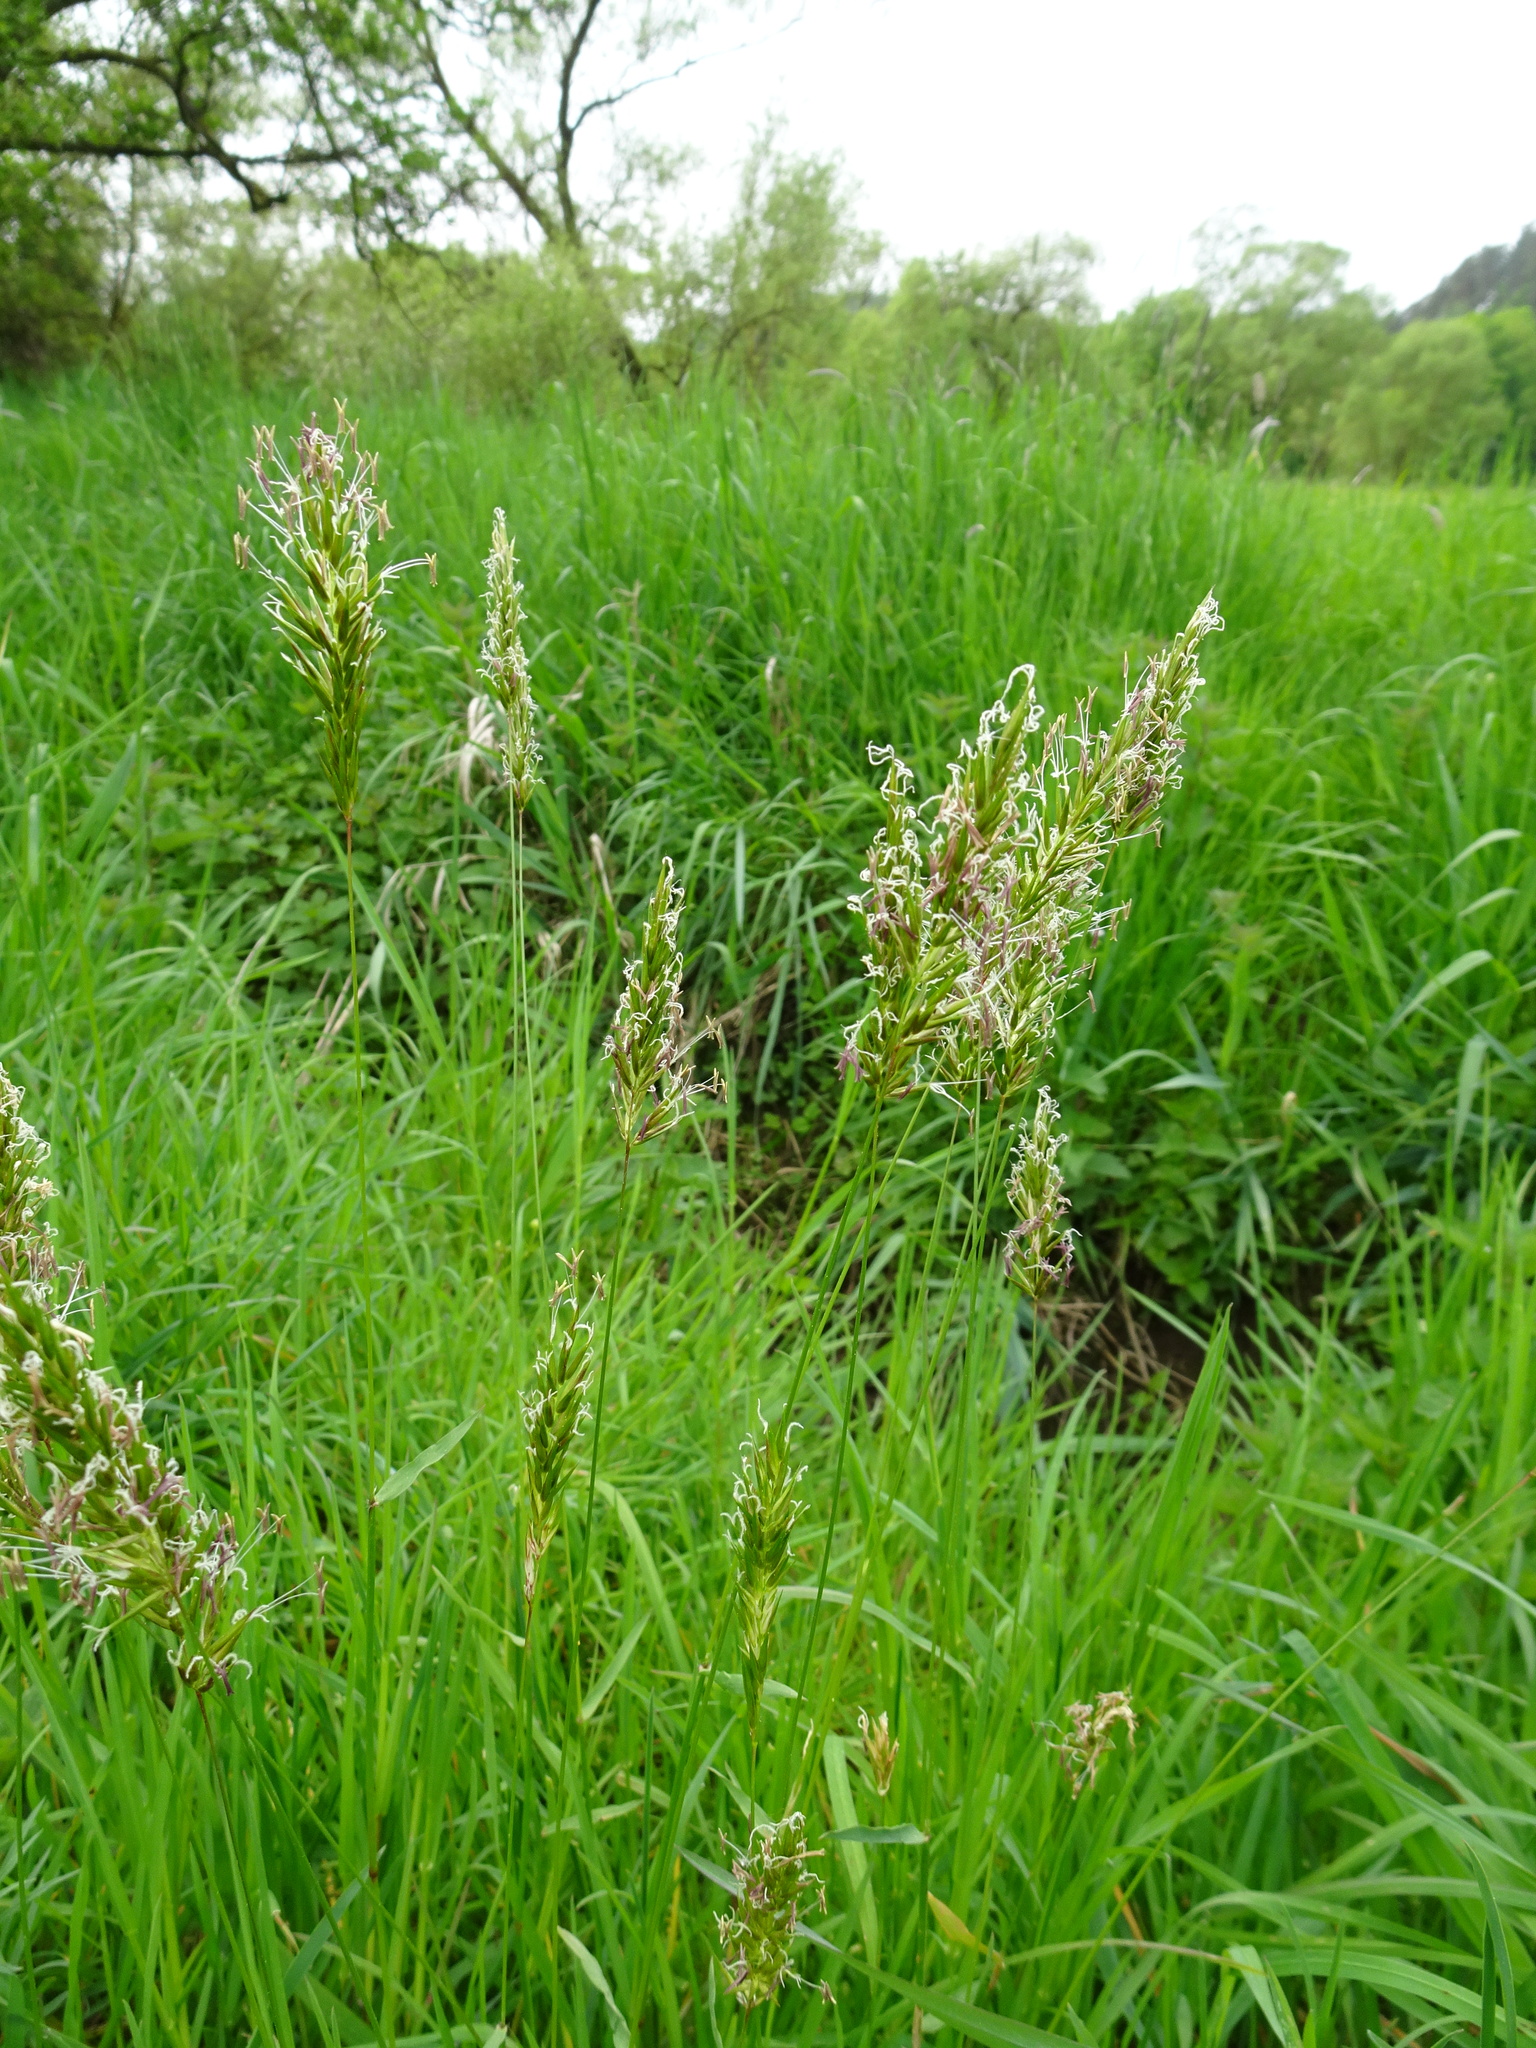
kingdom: Plantae
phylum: Tracheophyta
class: Liliopsida
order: Poales
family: Poaceae
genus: Anthoxanthum
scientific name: Anthoxanthum odoratum
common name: Sweet vernalgrass
